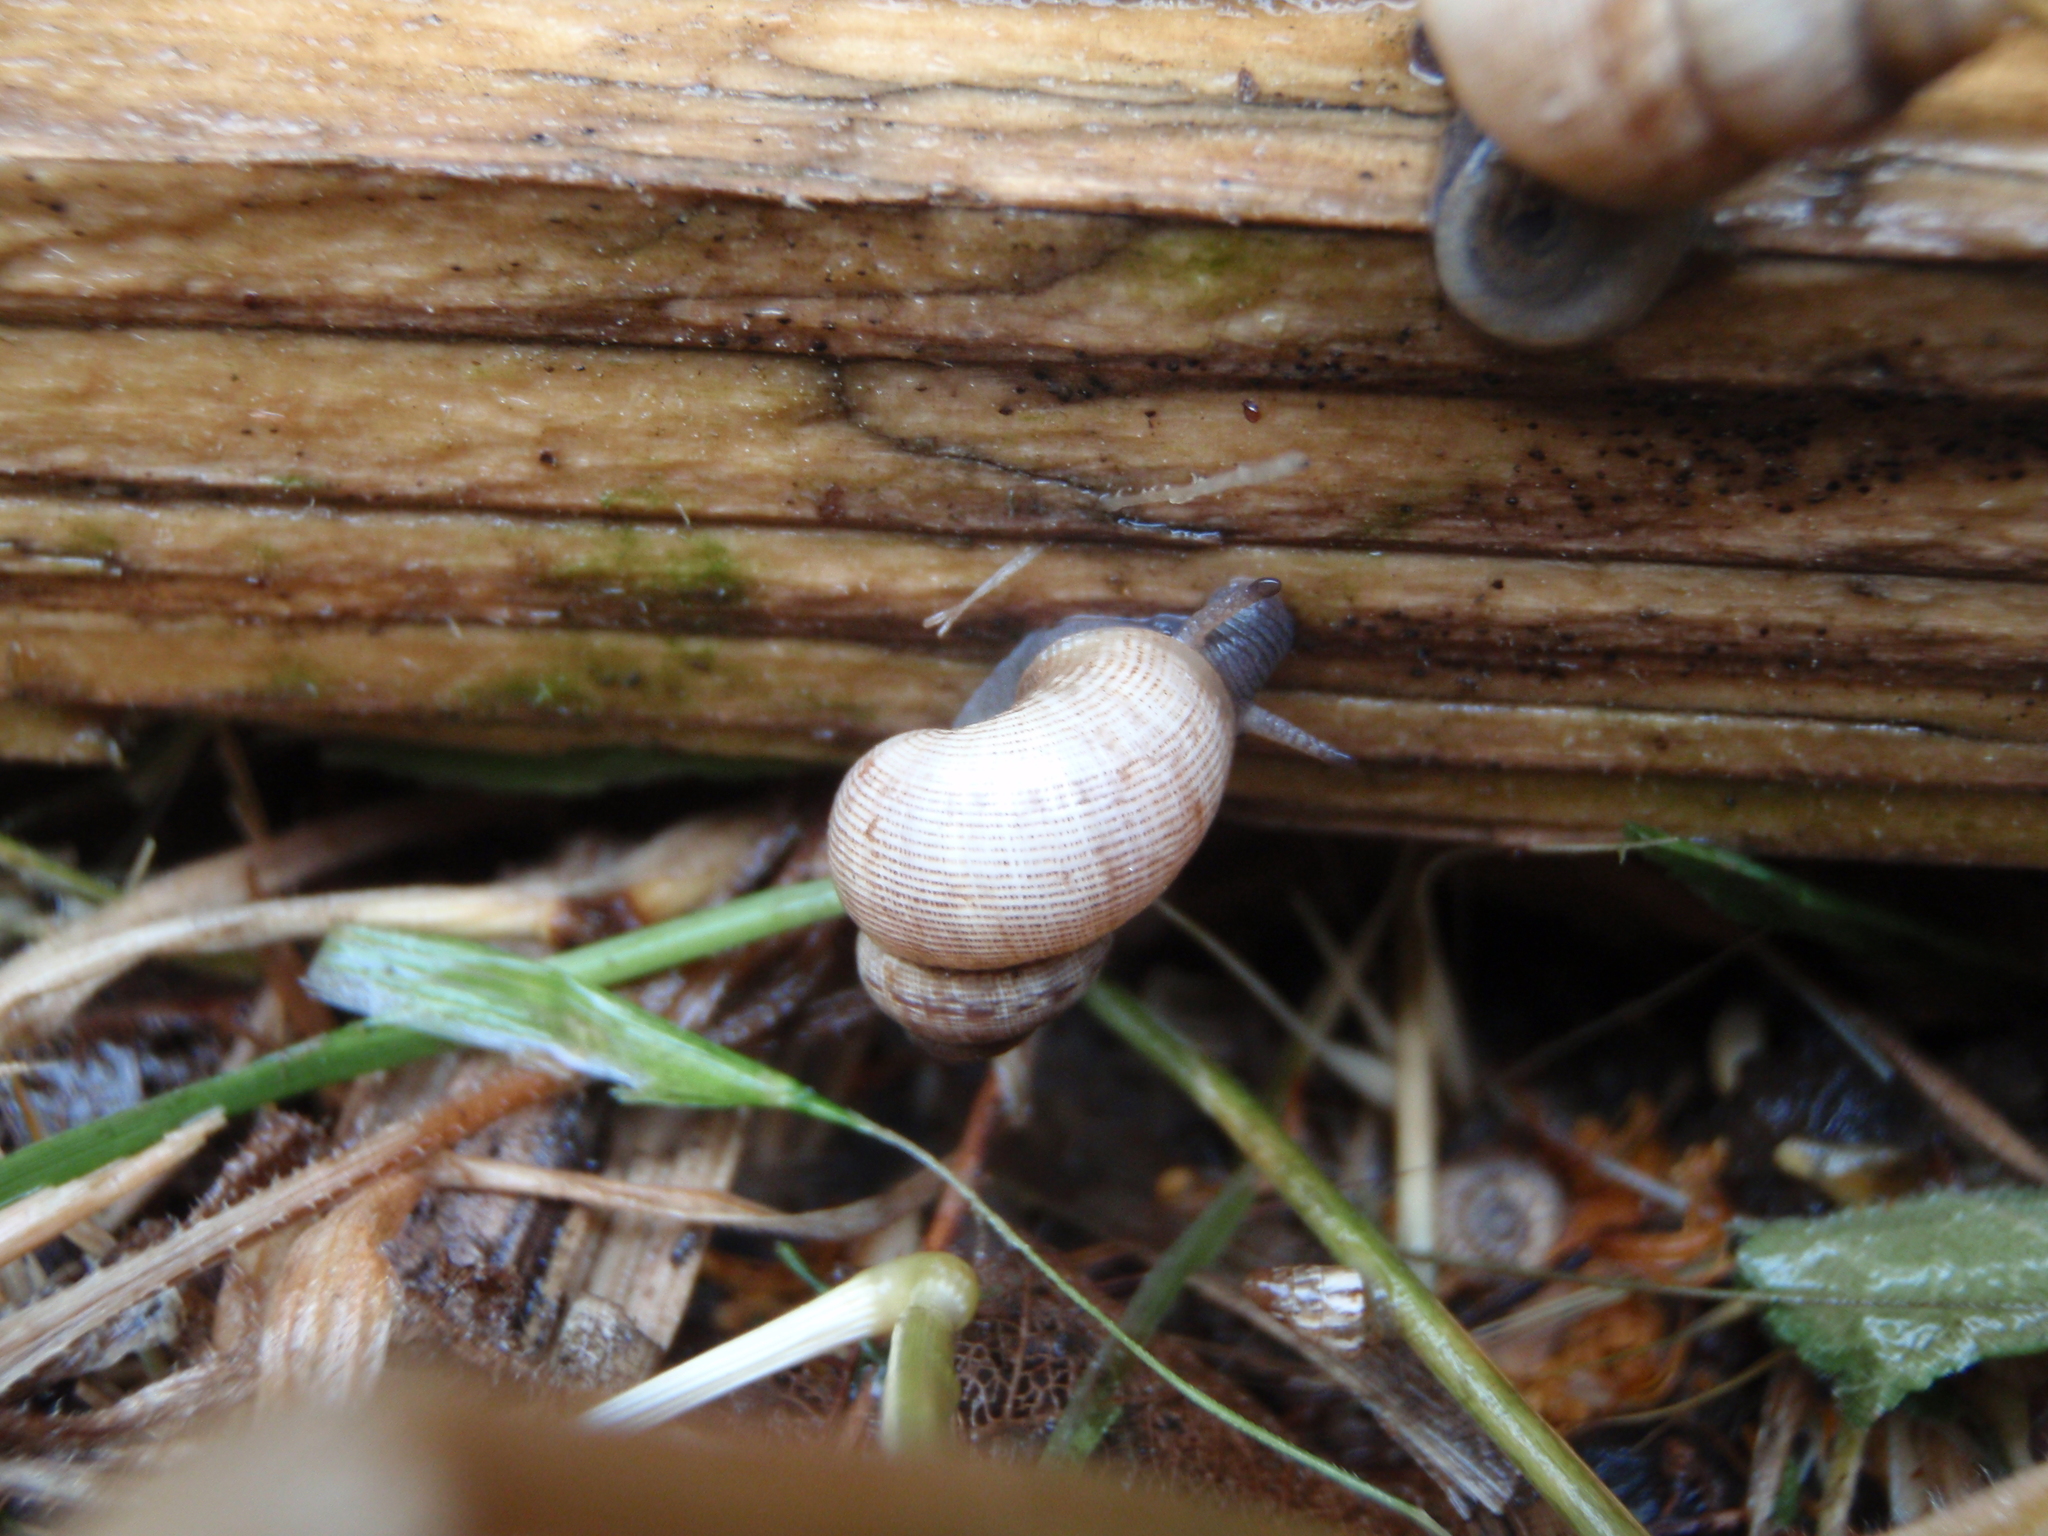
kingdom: Animalia
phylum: Mollusca
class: Gastropoda
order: Littorinimorpha
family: Pomatiidae
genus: Pomatias
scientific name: Pomatias elegans
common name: Red-mouthed snail
